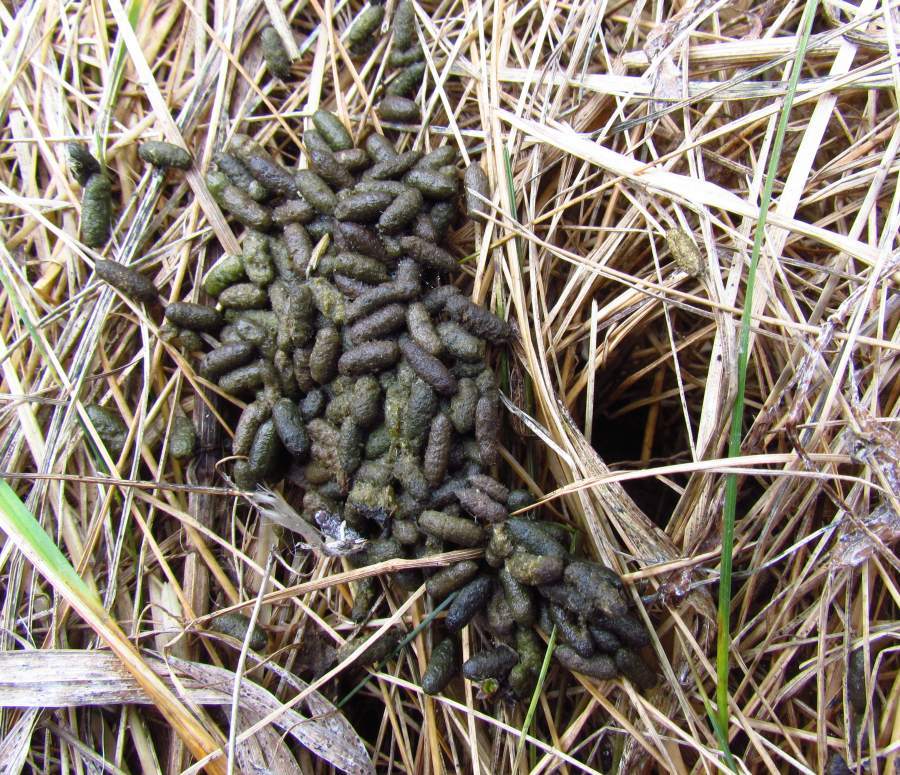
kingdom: Animalia
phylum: Chordata
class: Mammalia
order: Rodentia
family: Cricetidae
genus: Microtus
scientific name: Microtus pennsylvanicus
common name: Meadow vole
